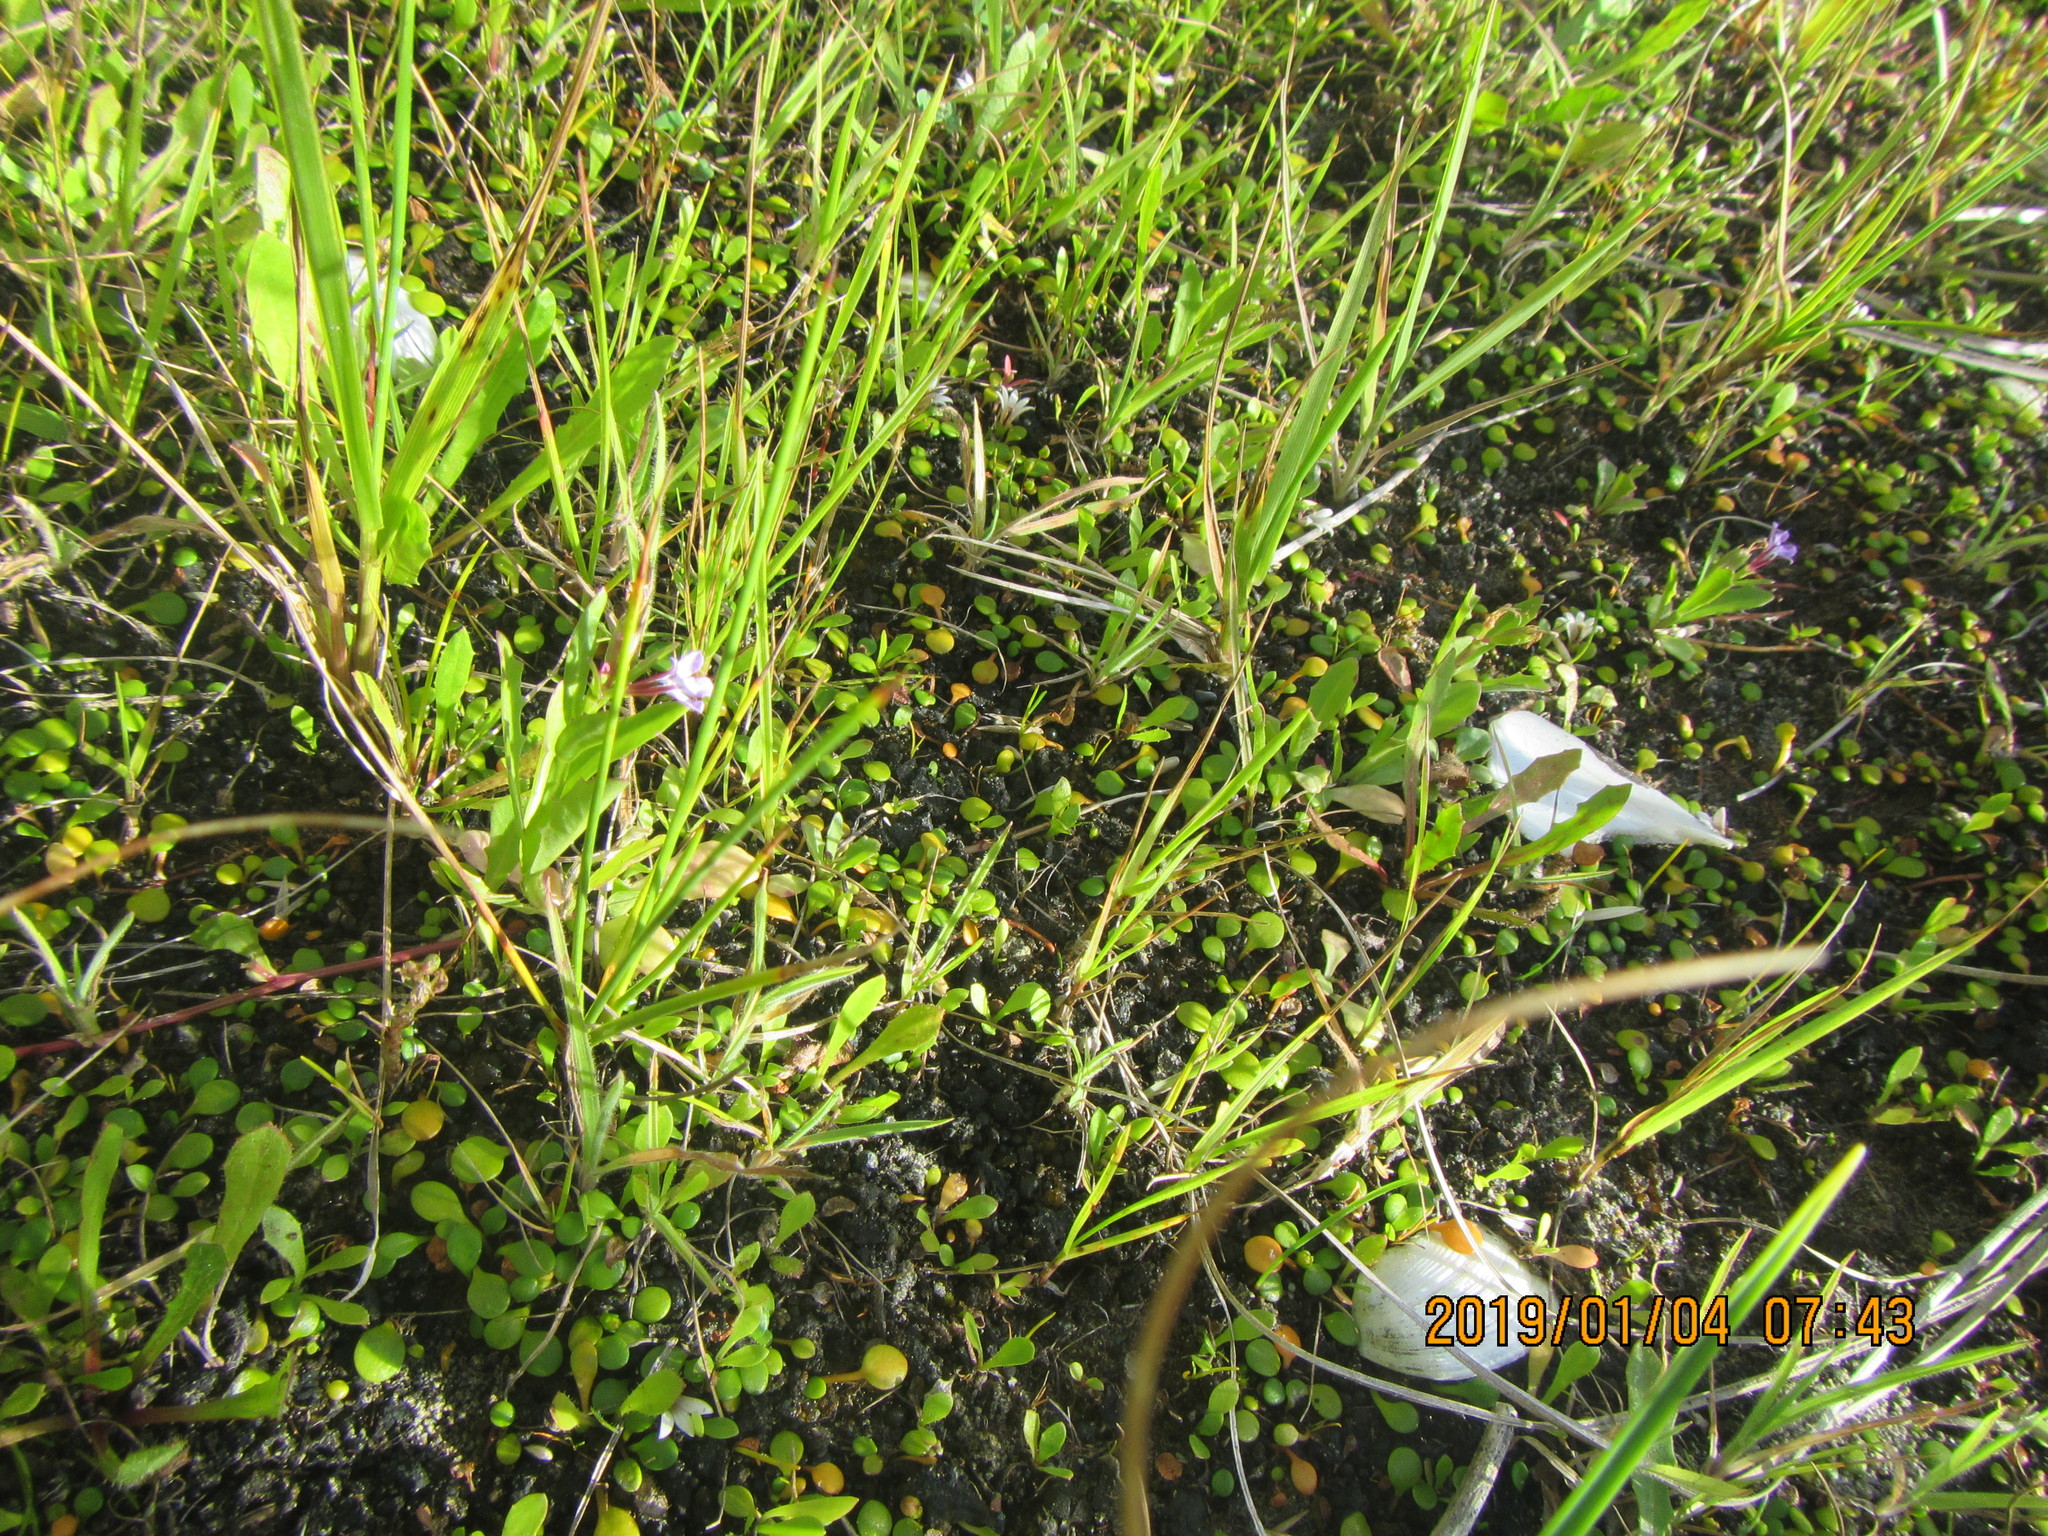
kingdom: Plantae
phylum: Tracheophyta
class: Magnoliopsida
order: Asterales
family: Campanulaceae
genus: Lobelia
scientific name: Lobelia anceps
